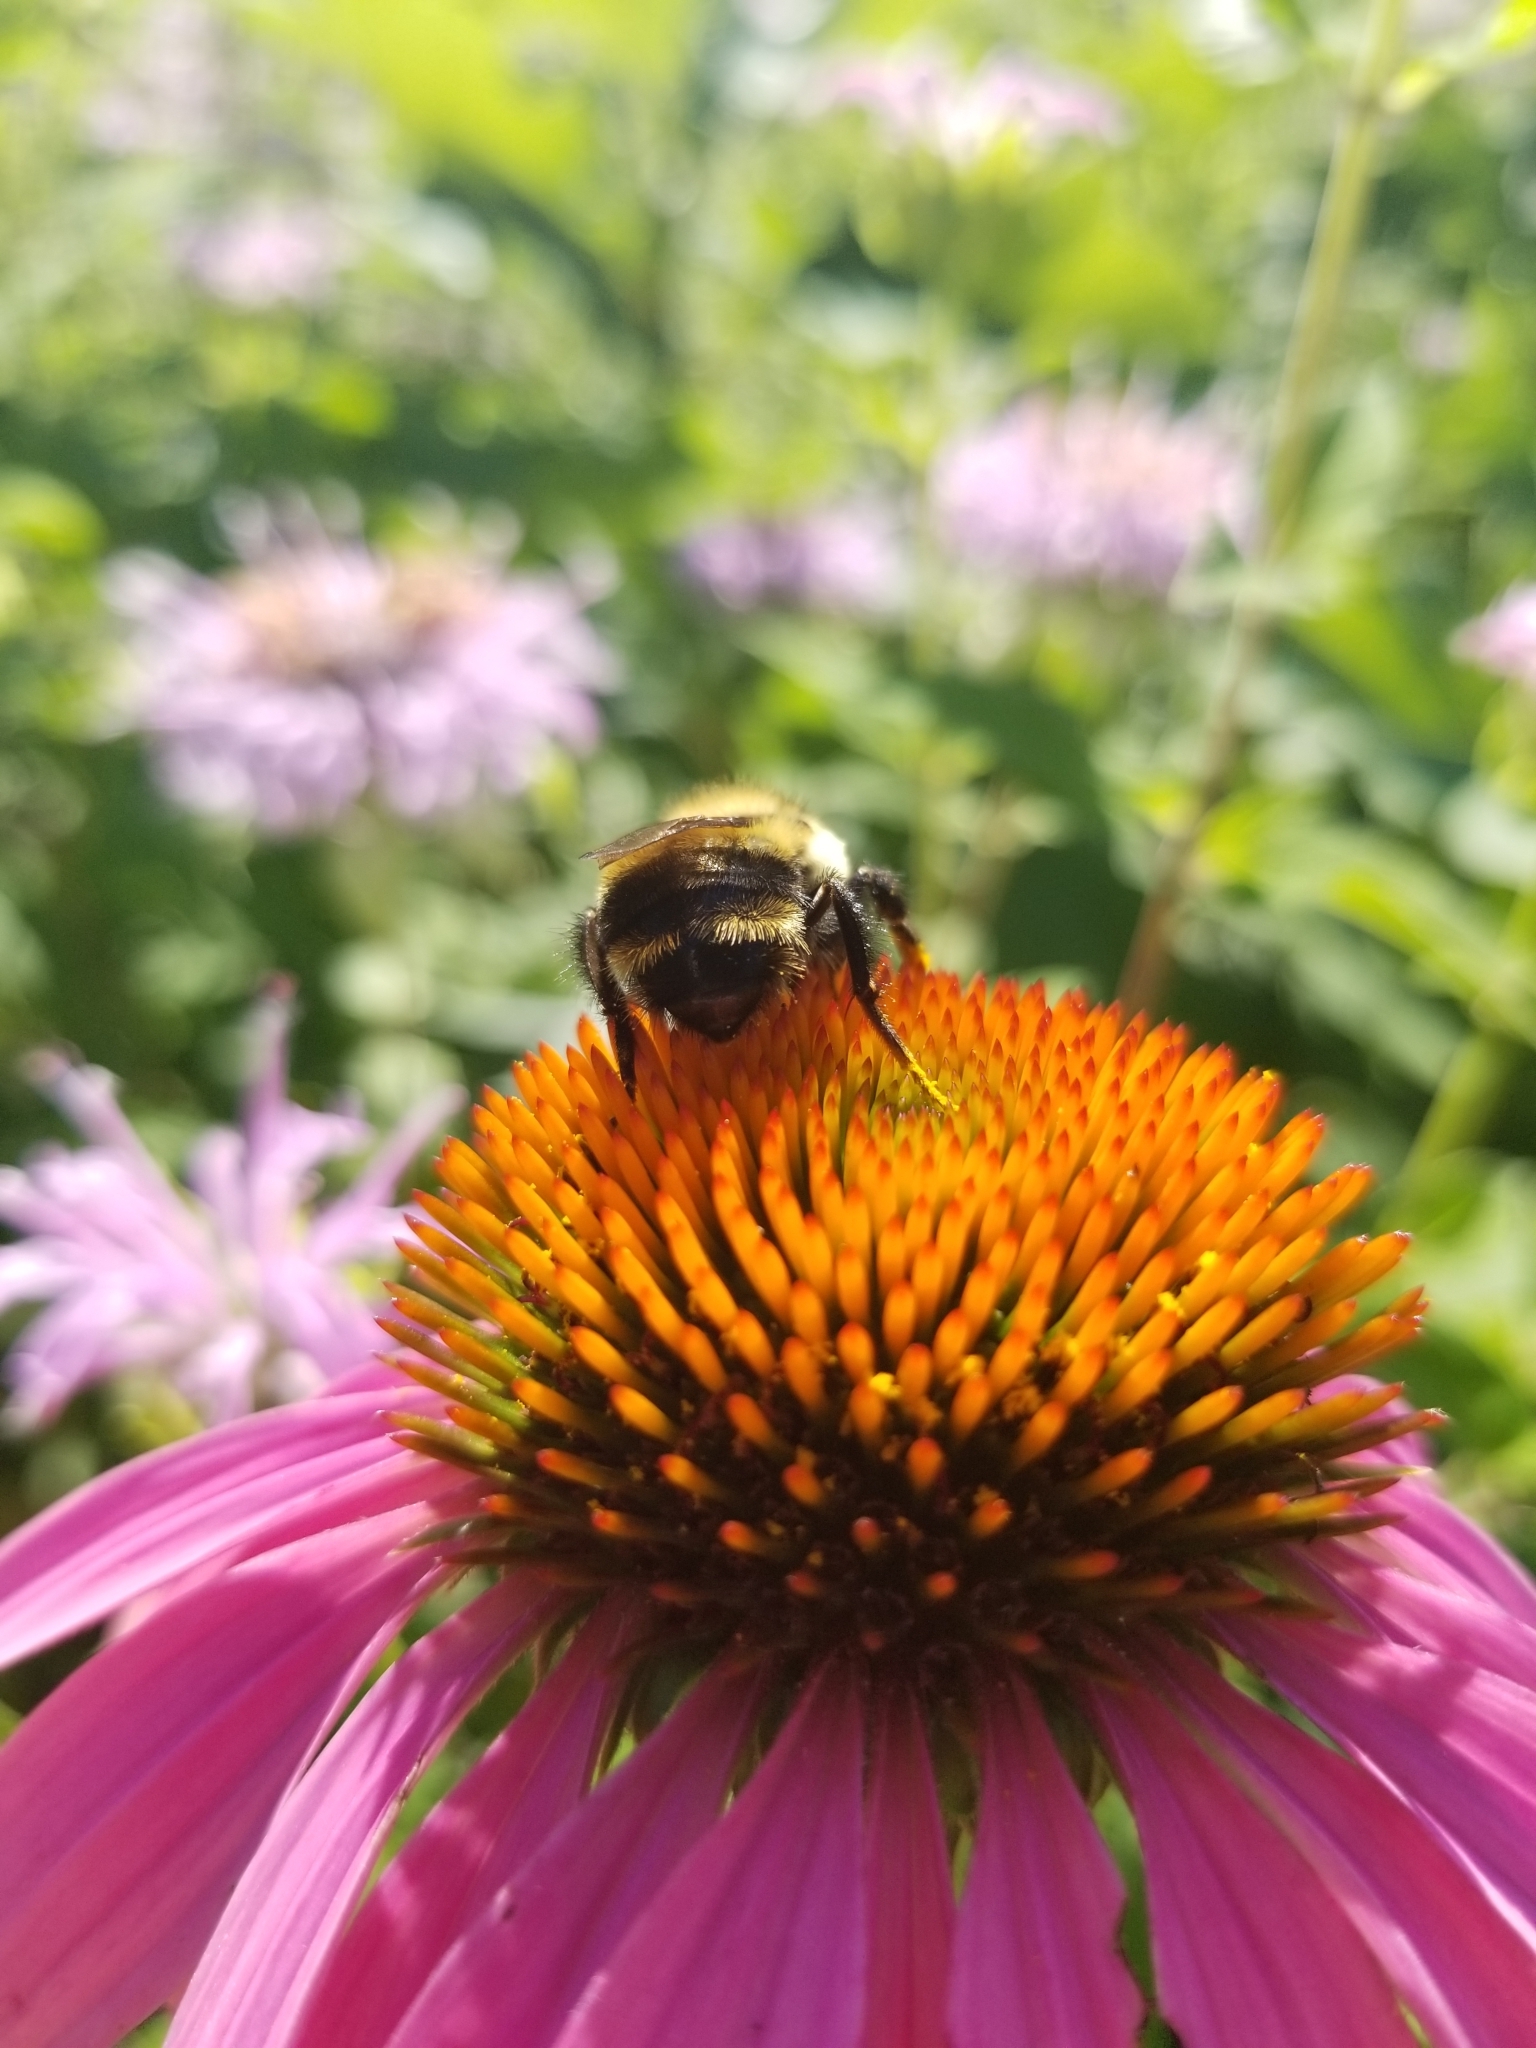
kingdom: Animalia
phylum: Arthropoda
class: Insecta
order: Hymenoptera
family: Apidae
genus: Bombus
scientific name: Bombus rufocinctus
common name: Red-belted bumble bee
